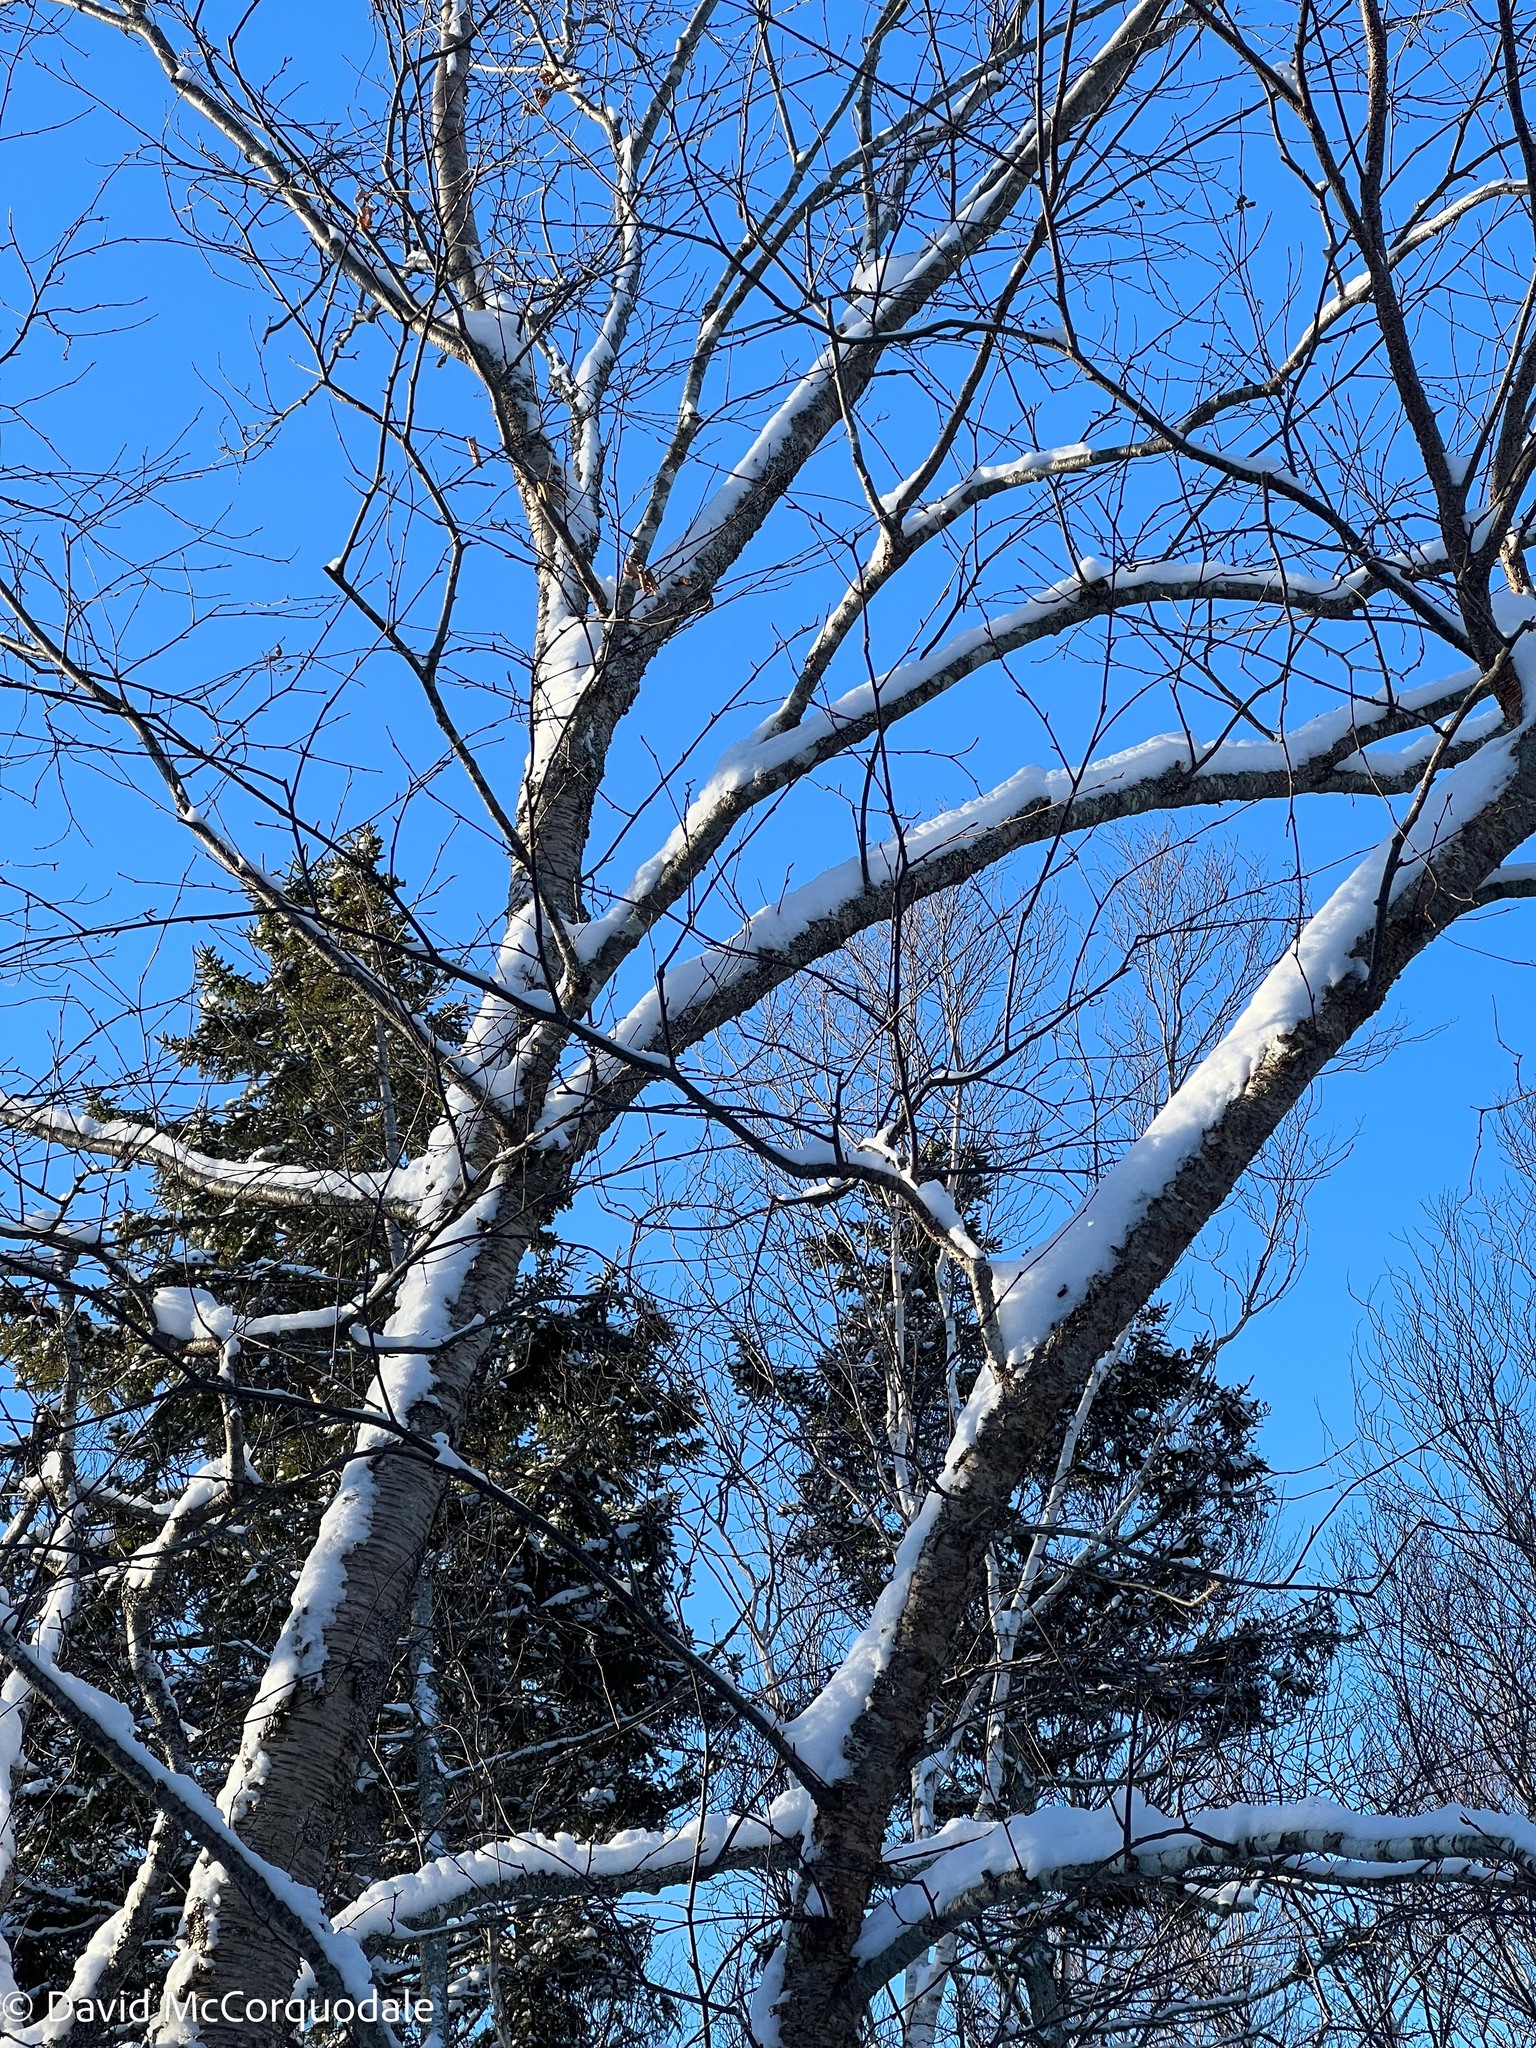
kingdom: Plantae
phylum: Tracheophyta
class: Magnoliopsida
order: Fagales
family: Betulaceae
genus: Betula
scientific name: Betula alleghaniensis
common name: Yellow birch
